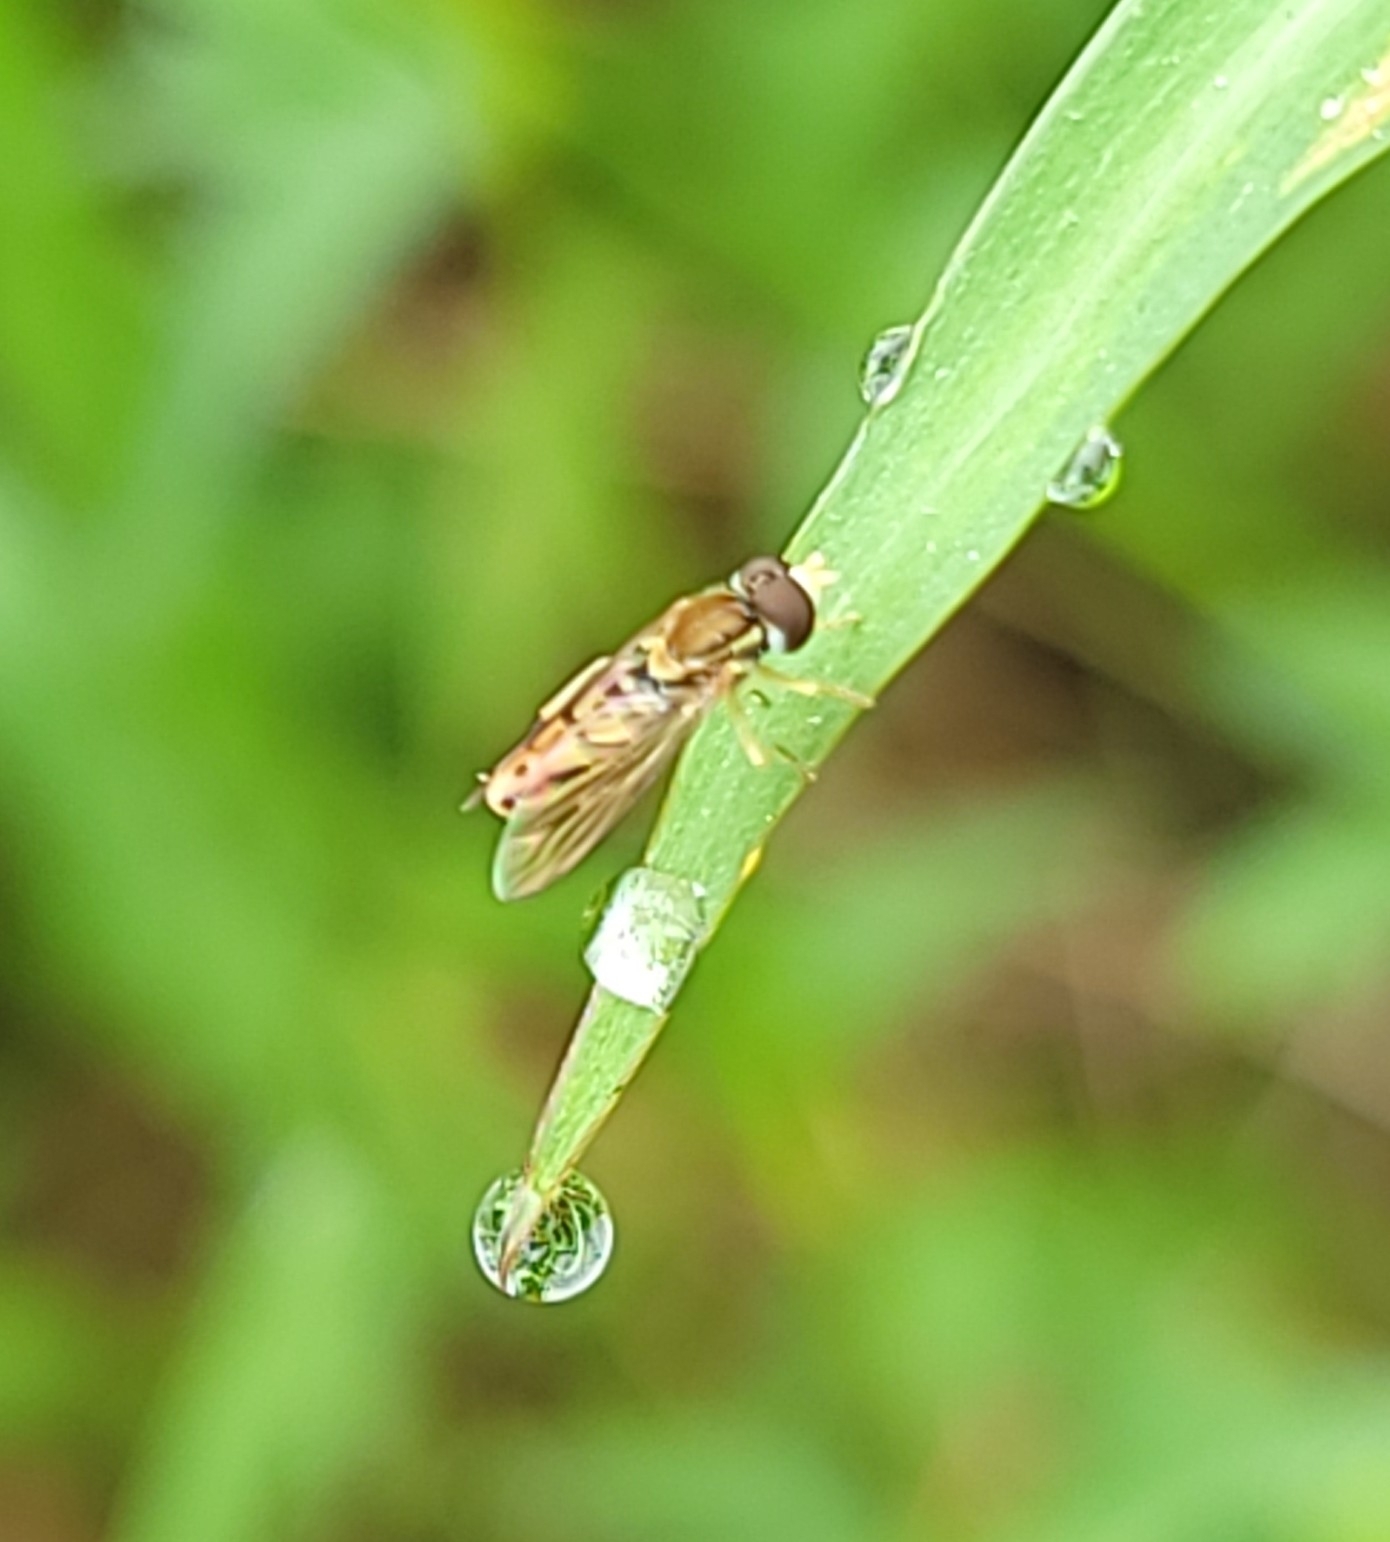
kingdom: Animalia
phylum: Arthropoda
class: Insecta
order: Diptera
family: Syrphidae
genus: Toxomerus
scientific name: Toxomerus marginatus
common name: Syrphid fly
